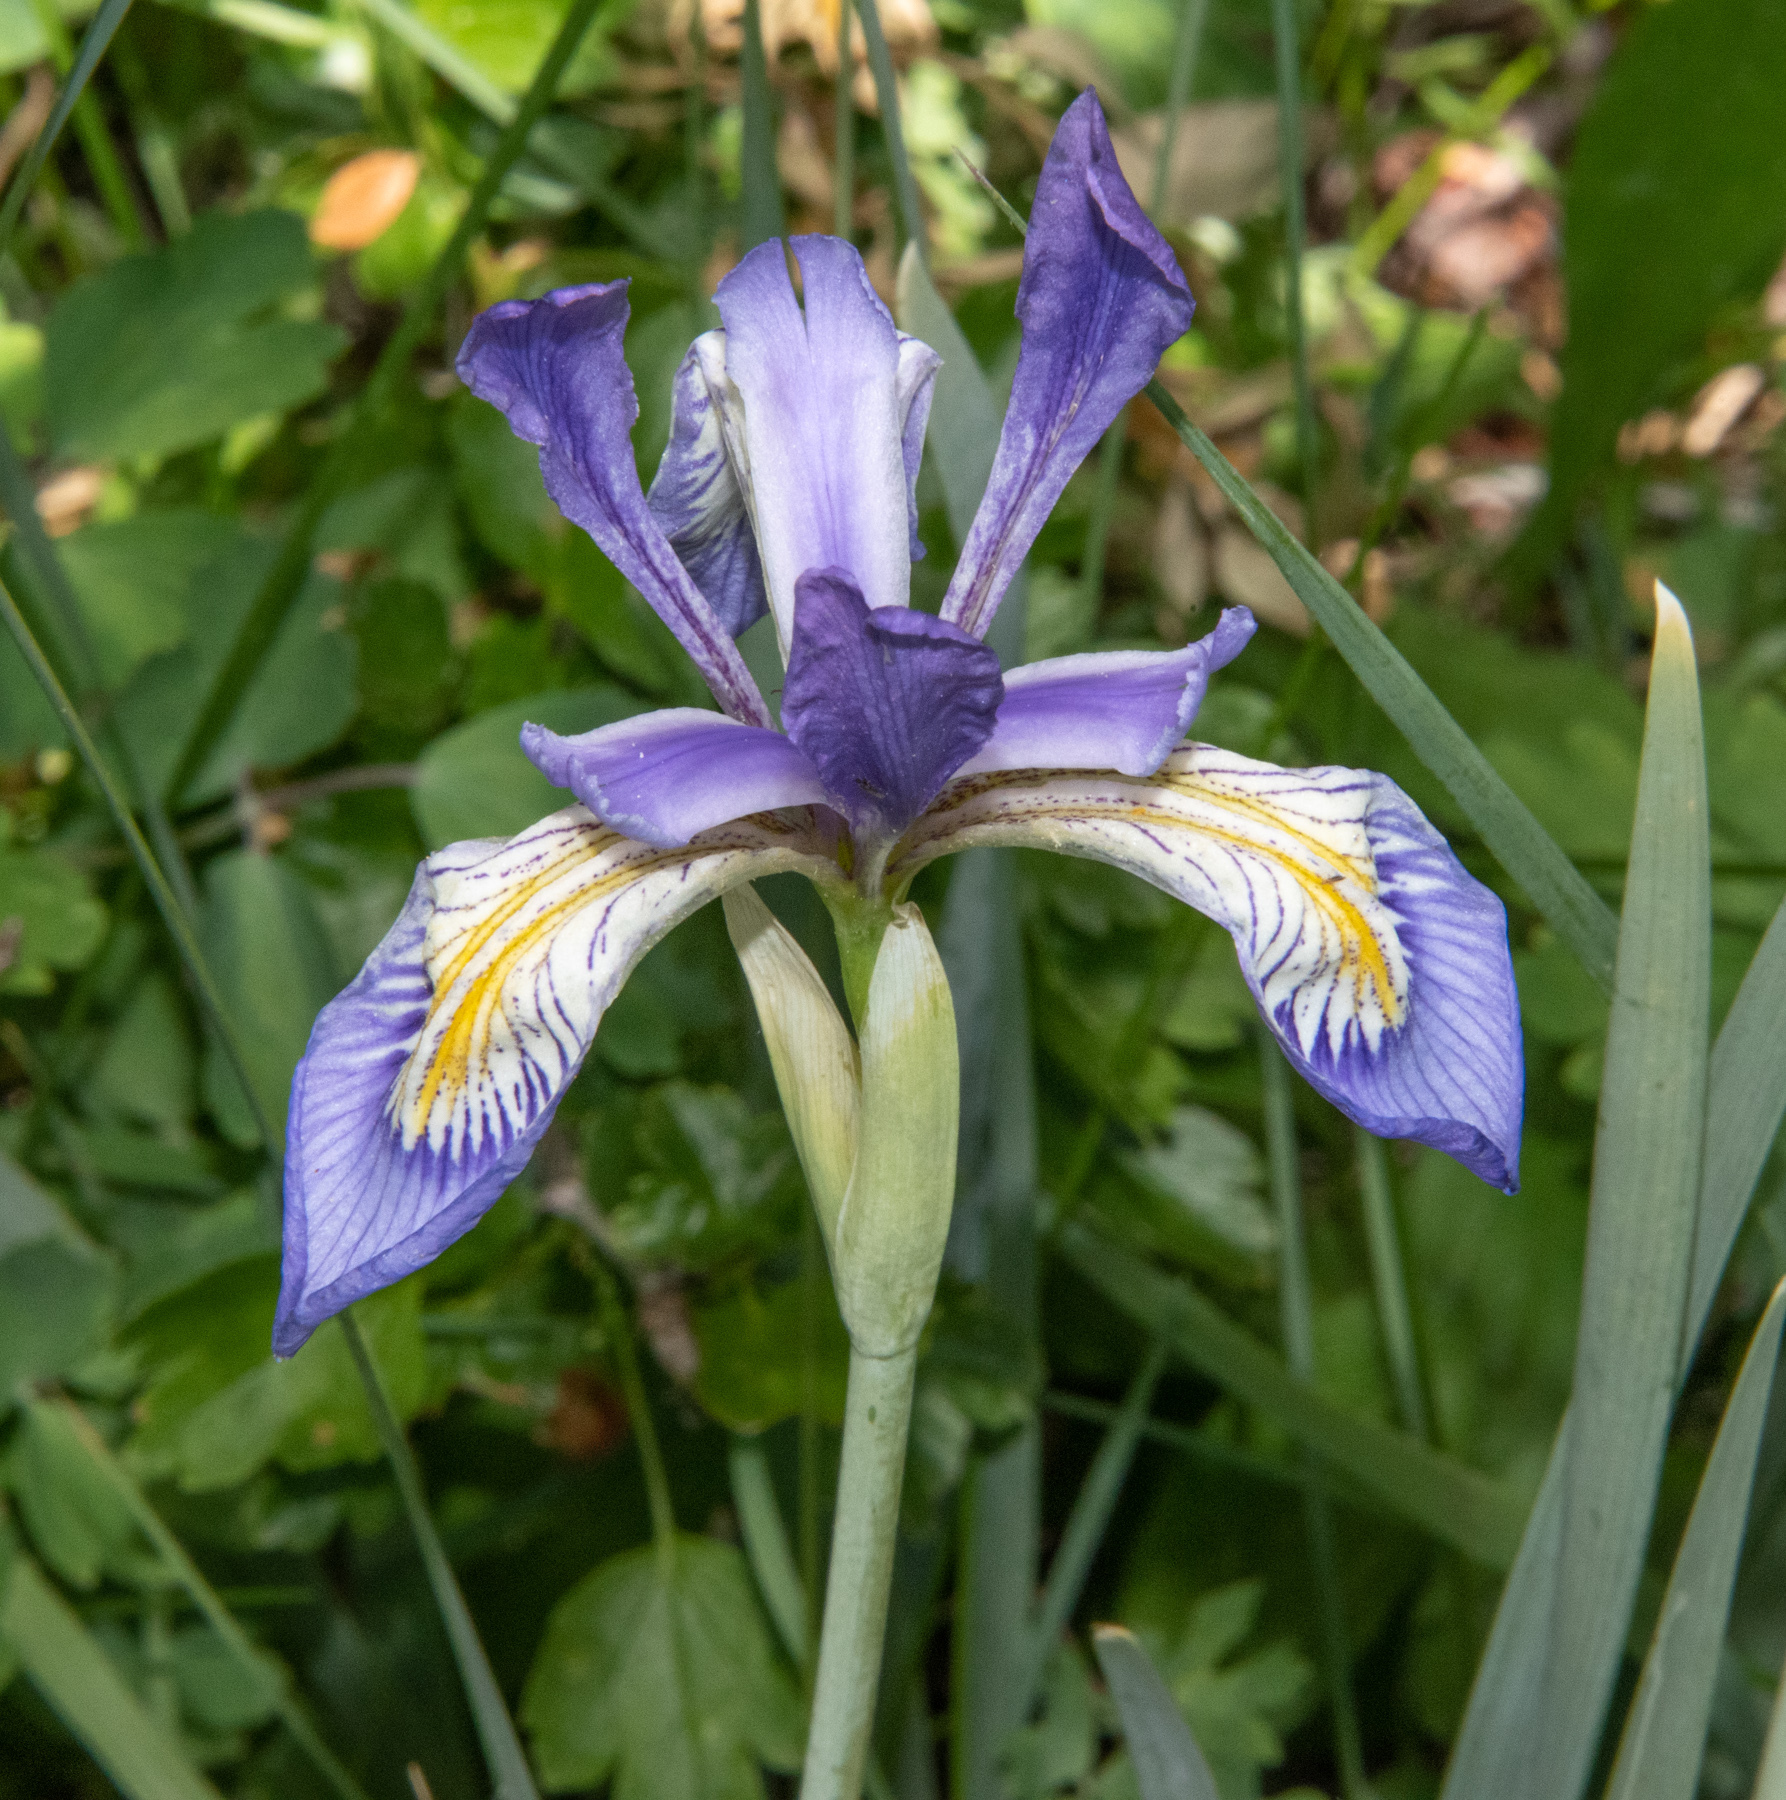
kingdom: Plantae
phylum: Tracheophyta
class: Liliopsida
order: Asparagales
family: Iridaceae
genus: Iris
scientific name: Iris missouriensis
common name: Rocky mountain iris
